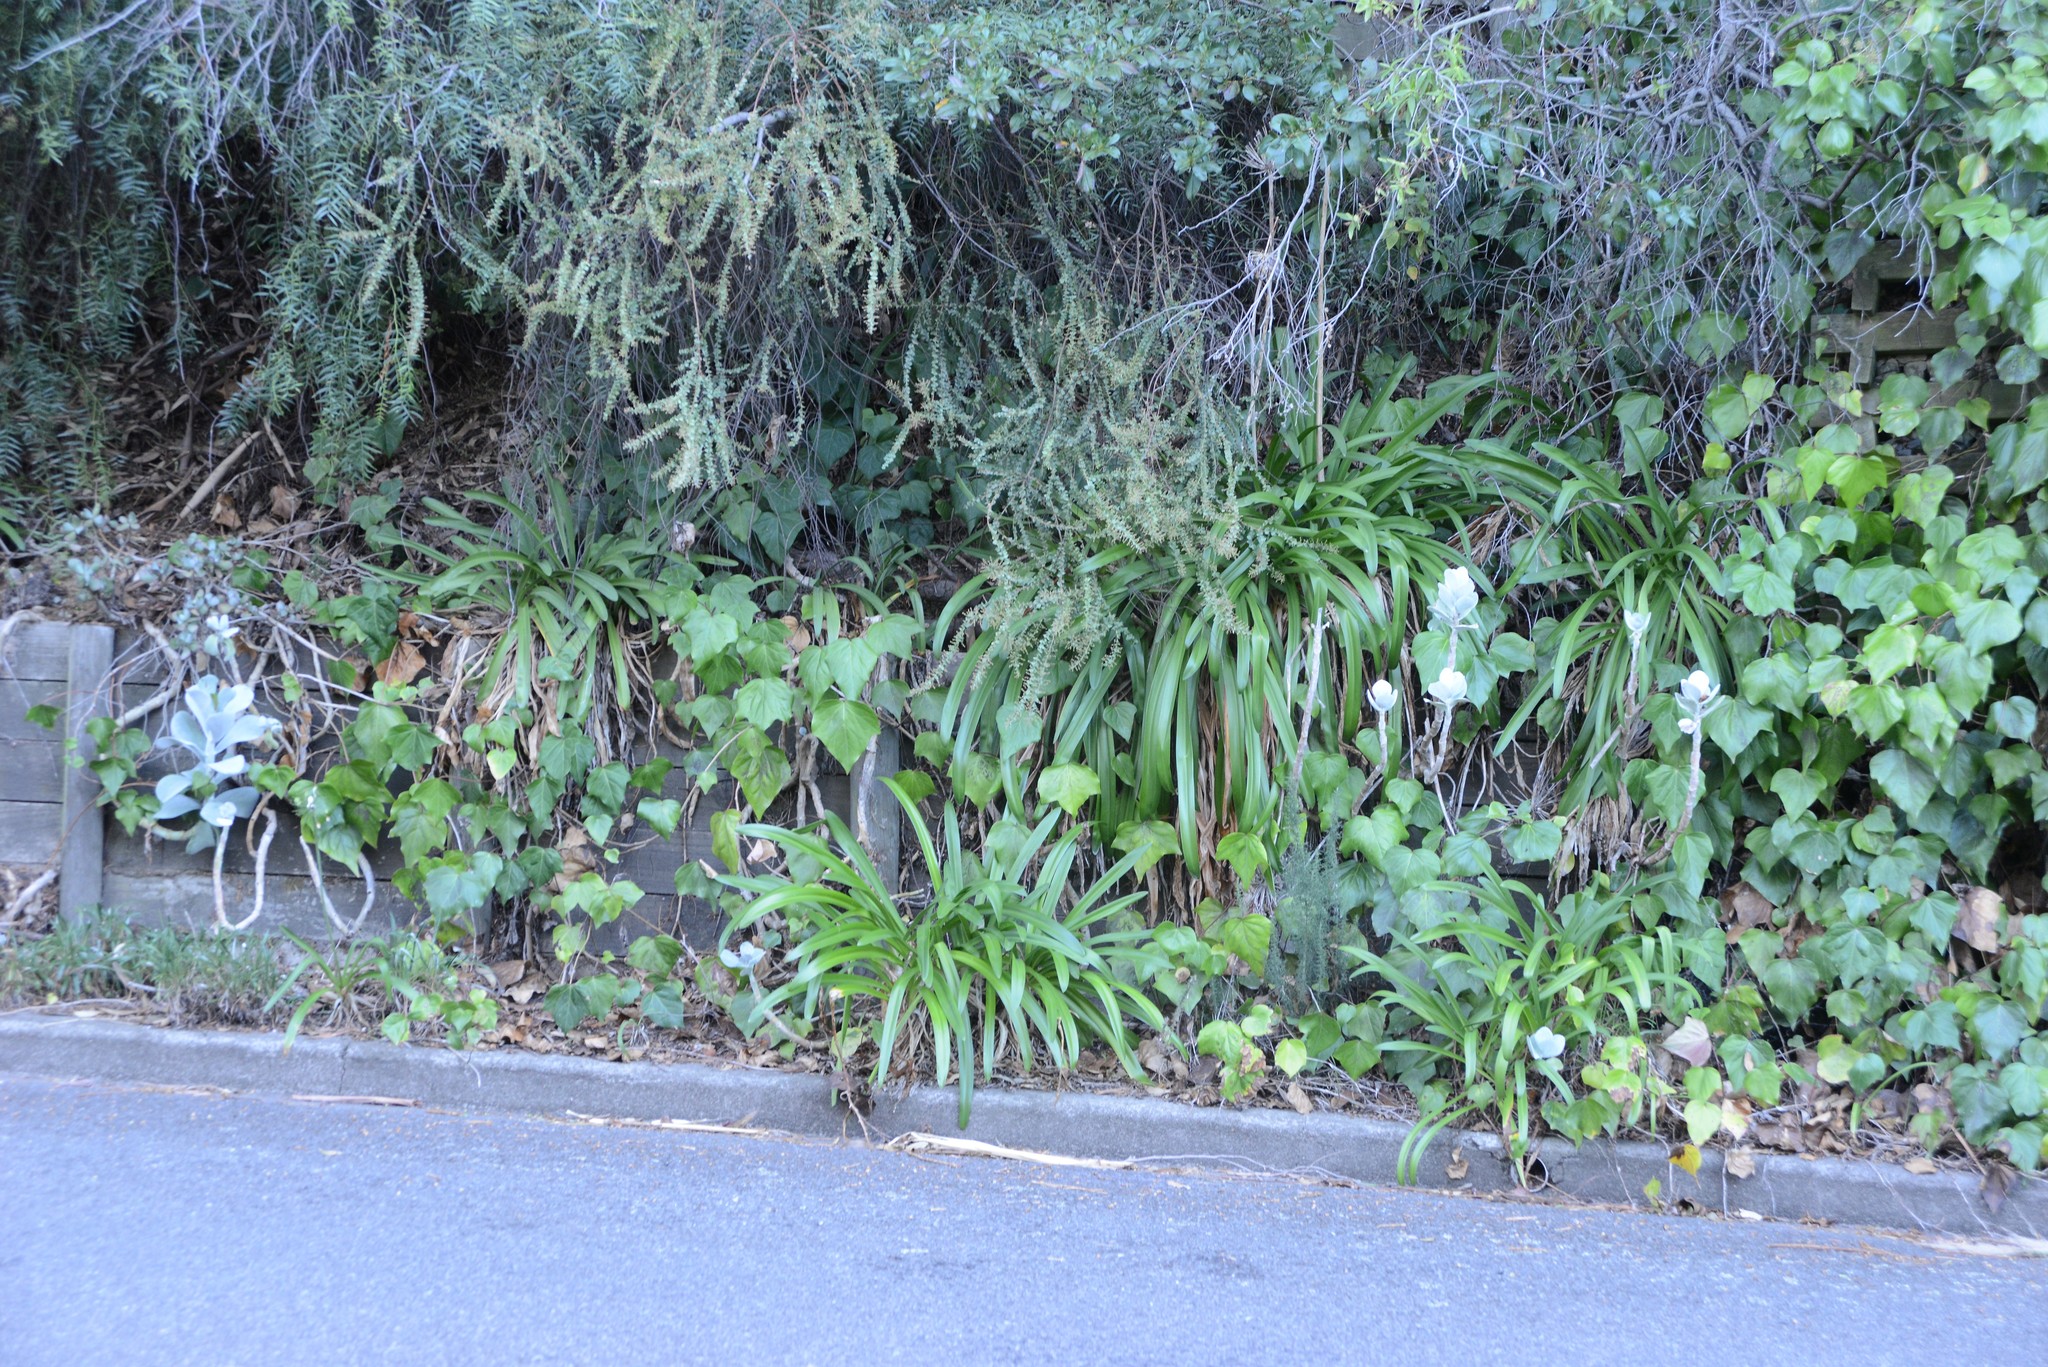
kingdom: Plantae
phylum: Tracheophyta
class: Liliopsida
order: Asparagales
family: Amaryllidaceae
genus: Agapanthus
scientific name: Agapanthus praecox
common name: African-lily
